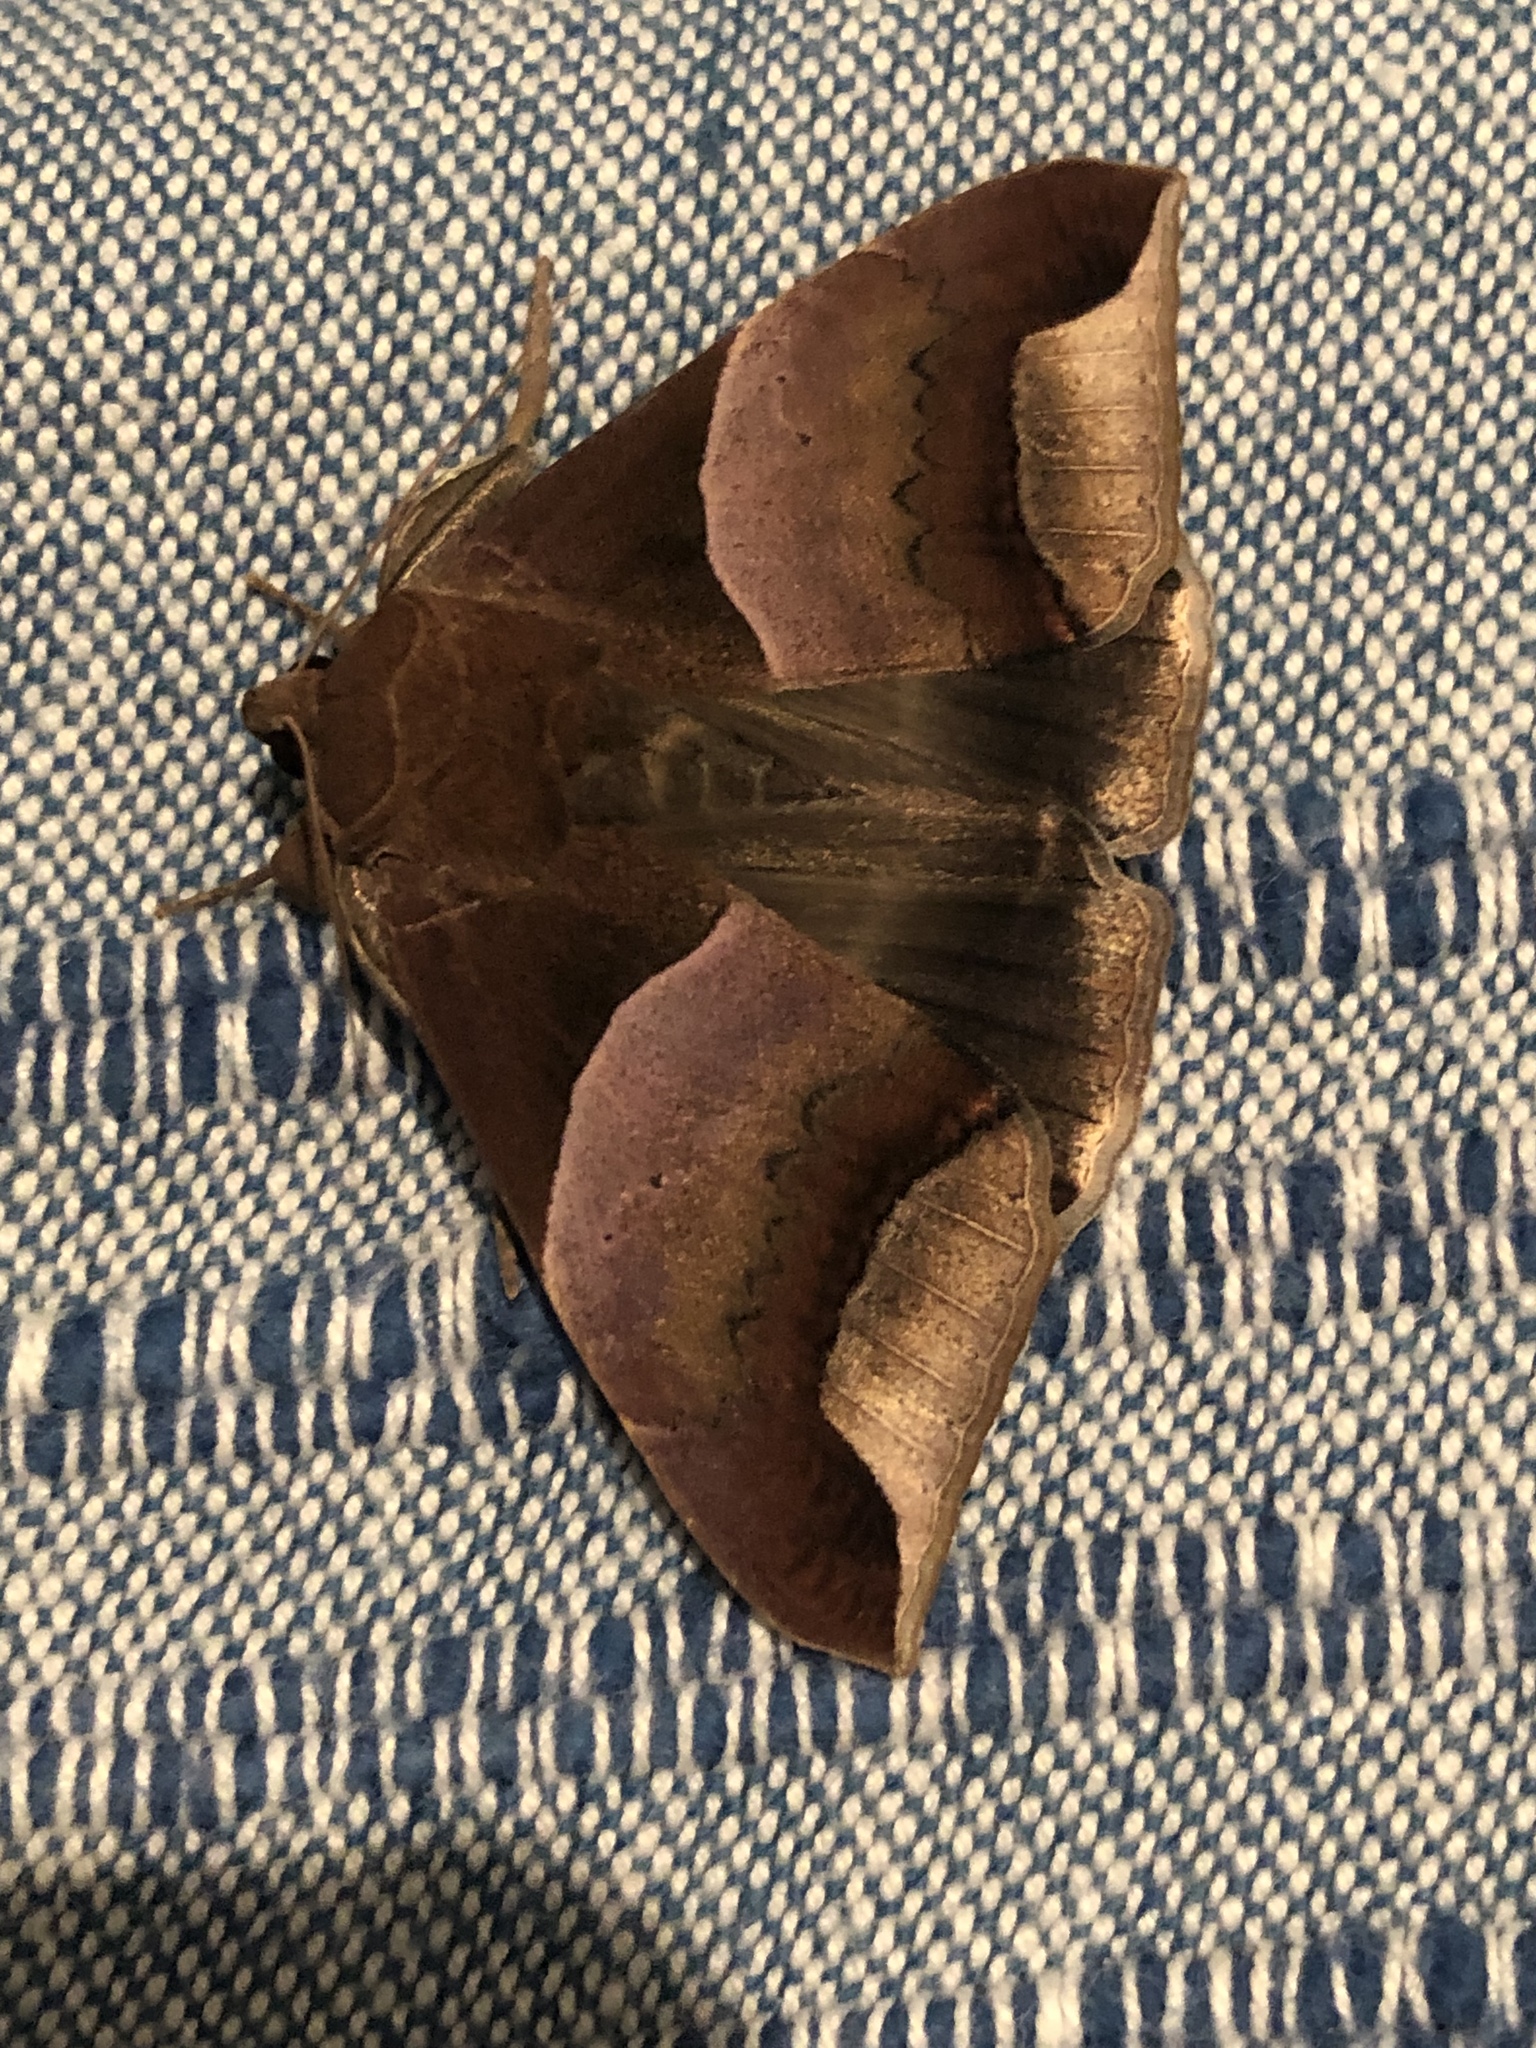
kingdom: Animalia
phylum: Arthropoda
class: Insecta
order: Lepidoptera
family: Erebidae
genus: Achaea
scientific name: Achaea echo
